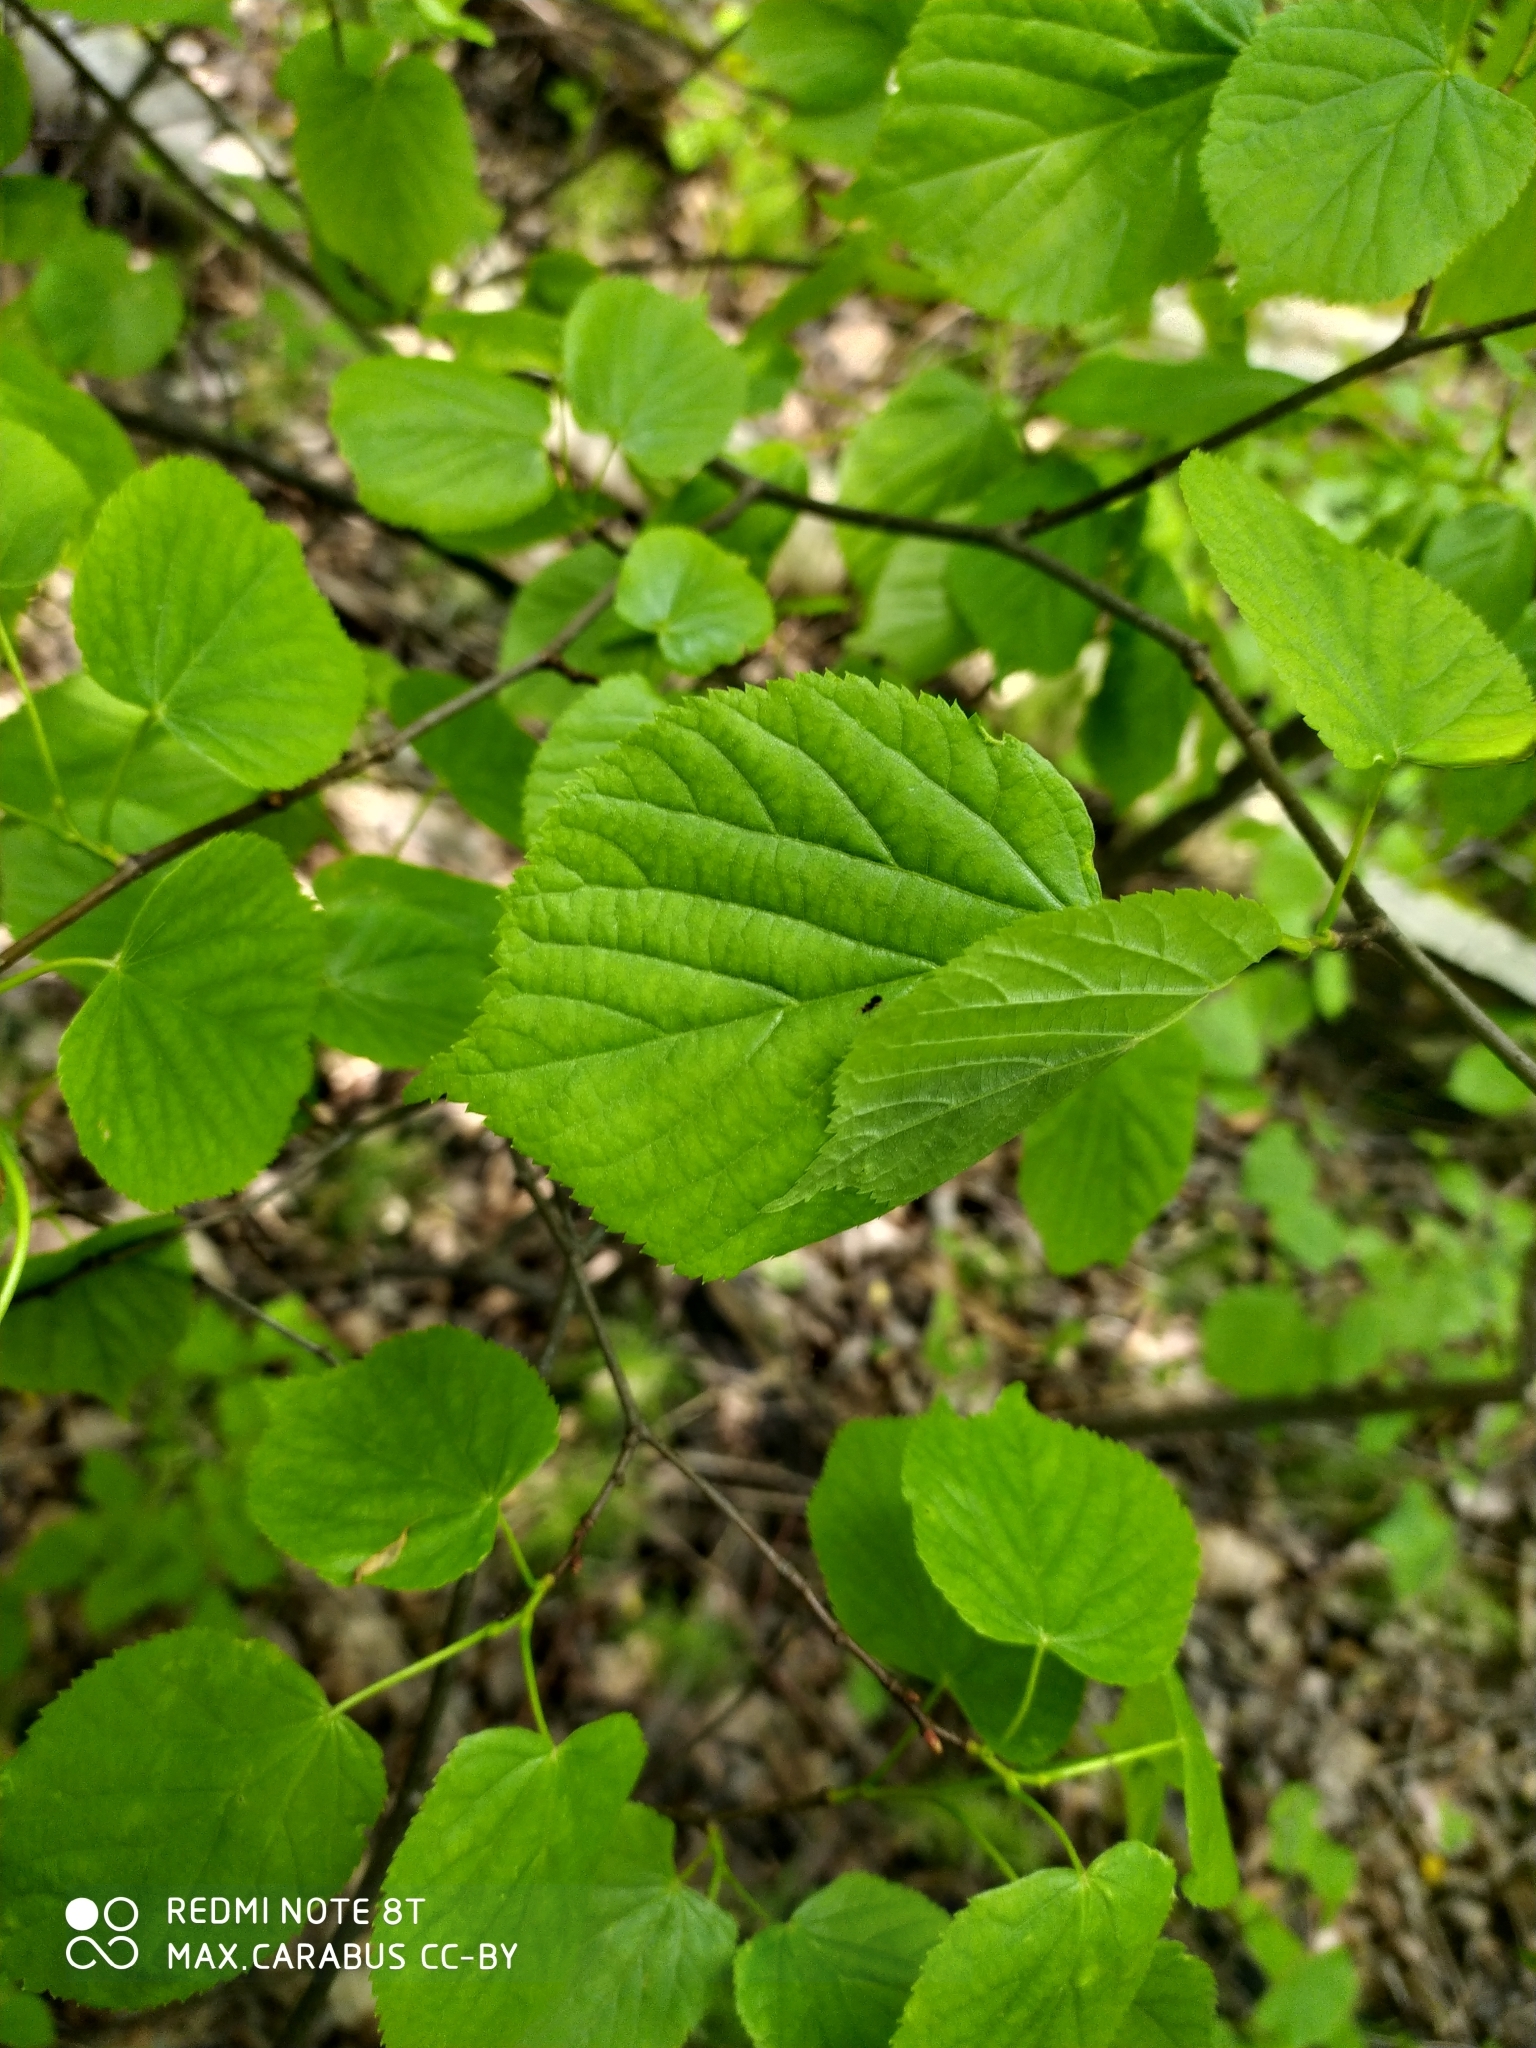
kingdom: Plantae
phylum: Tracheophyta
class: Magnoliopsida
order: Malvales
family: Malvaceae
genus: Tilia
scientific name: Tilia cordata
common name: Small-leaved lime
